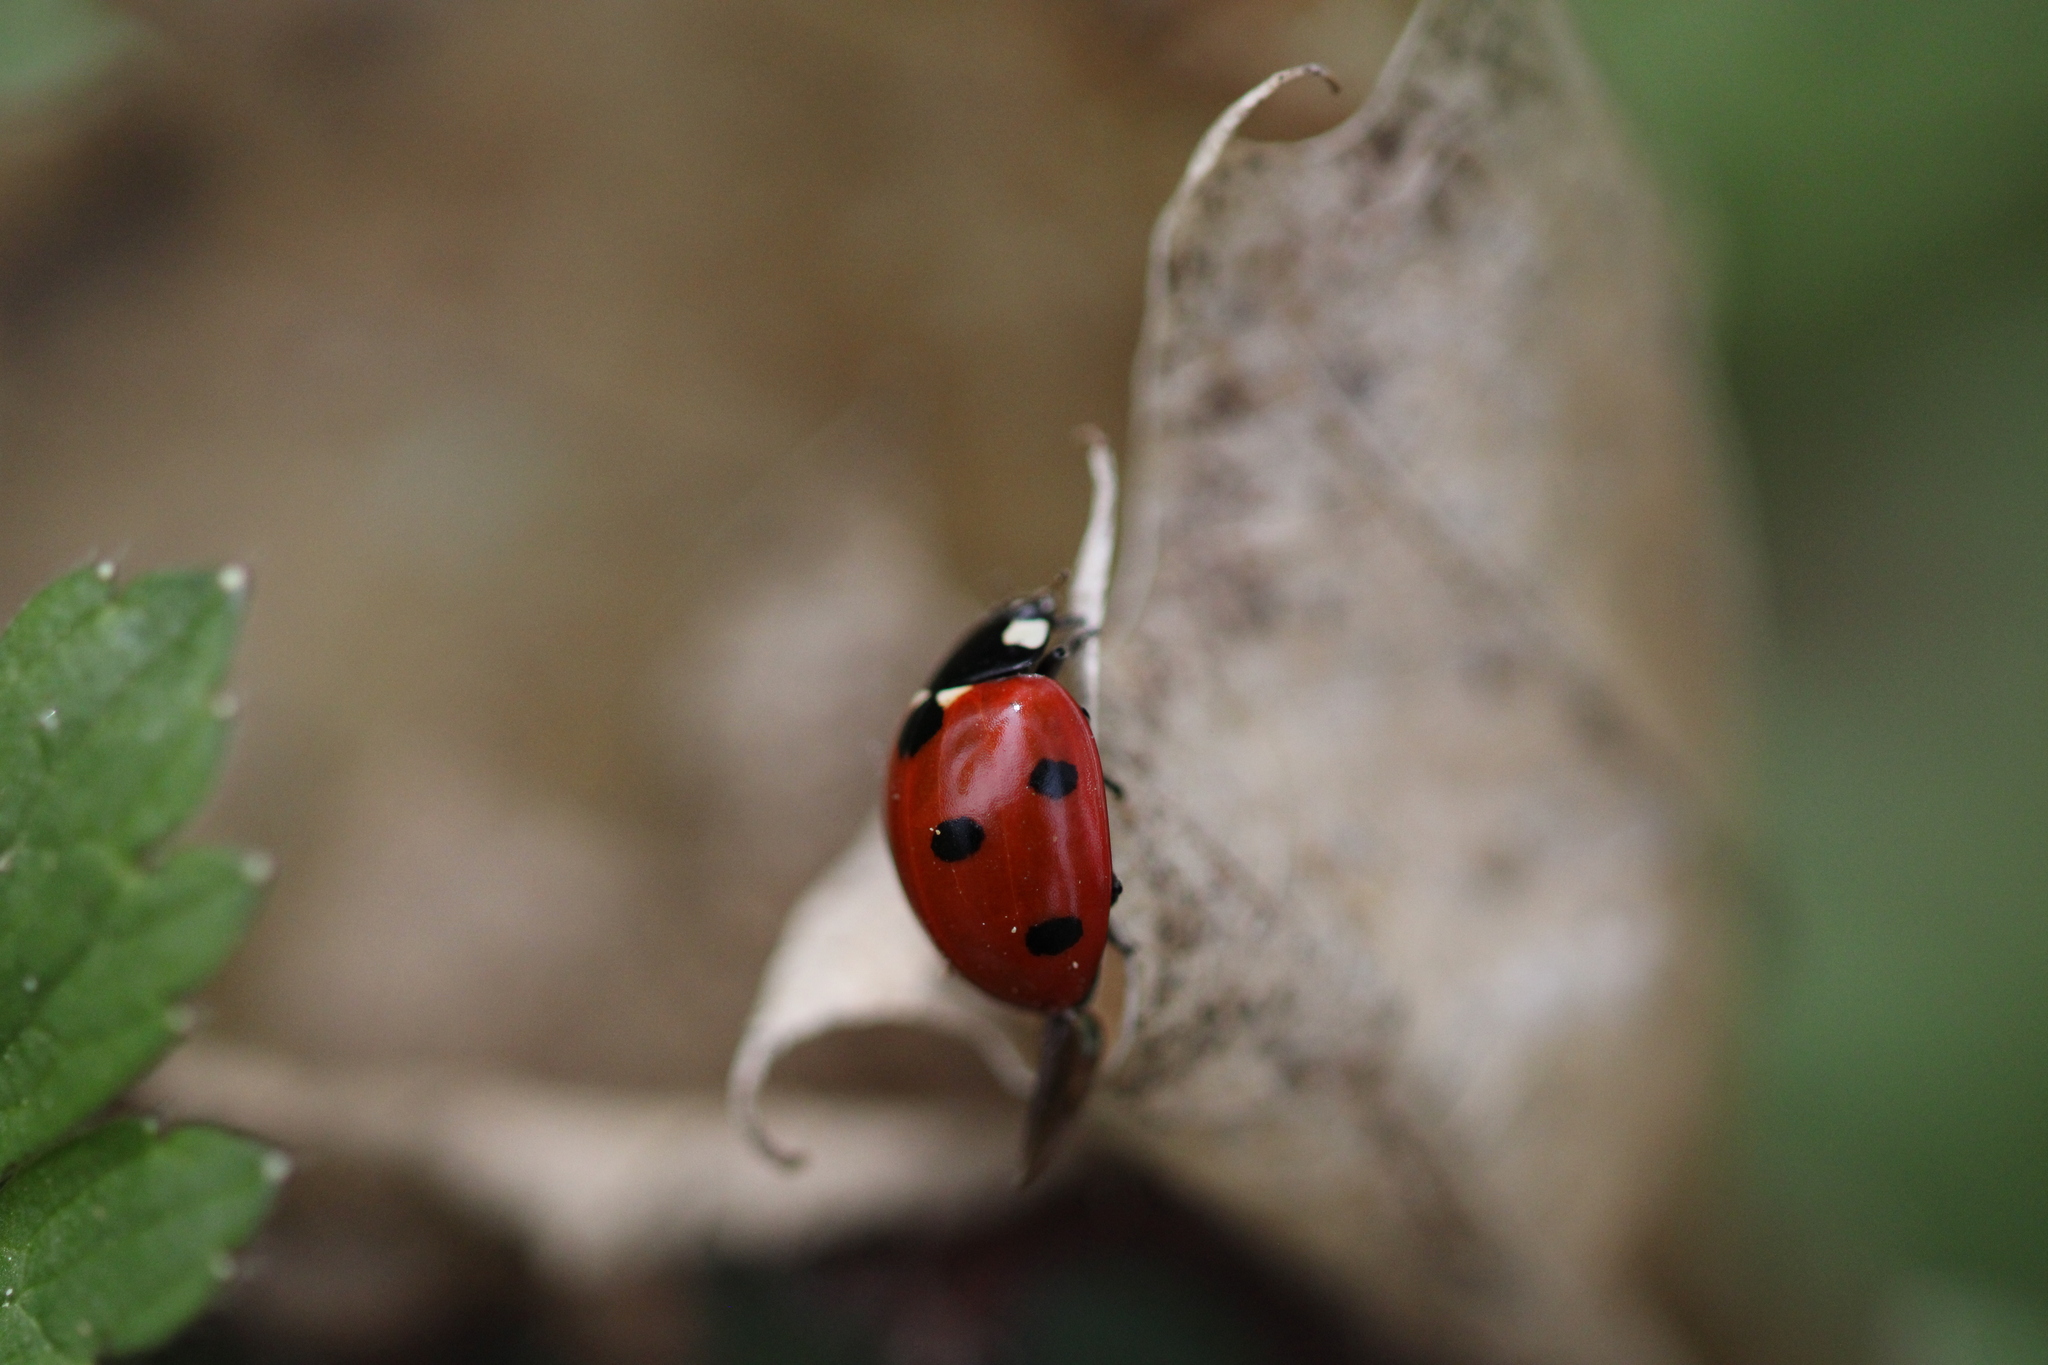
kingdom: Animalia
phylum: Arthropoda
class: Insecta
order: Coleoptera
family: Coccinellidae
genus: Coccinella
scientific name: Coccinella septempunctata
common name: Sevenspotted lady beetle
